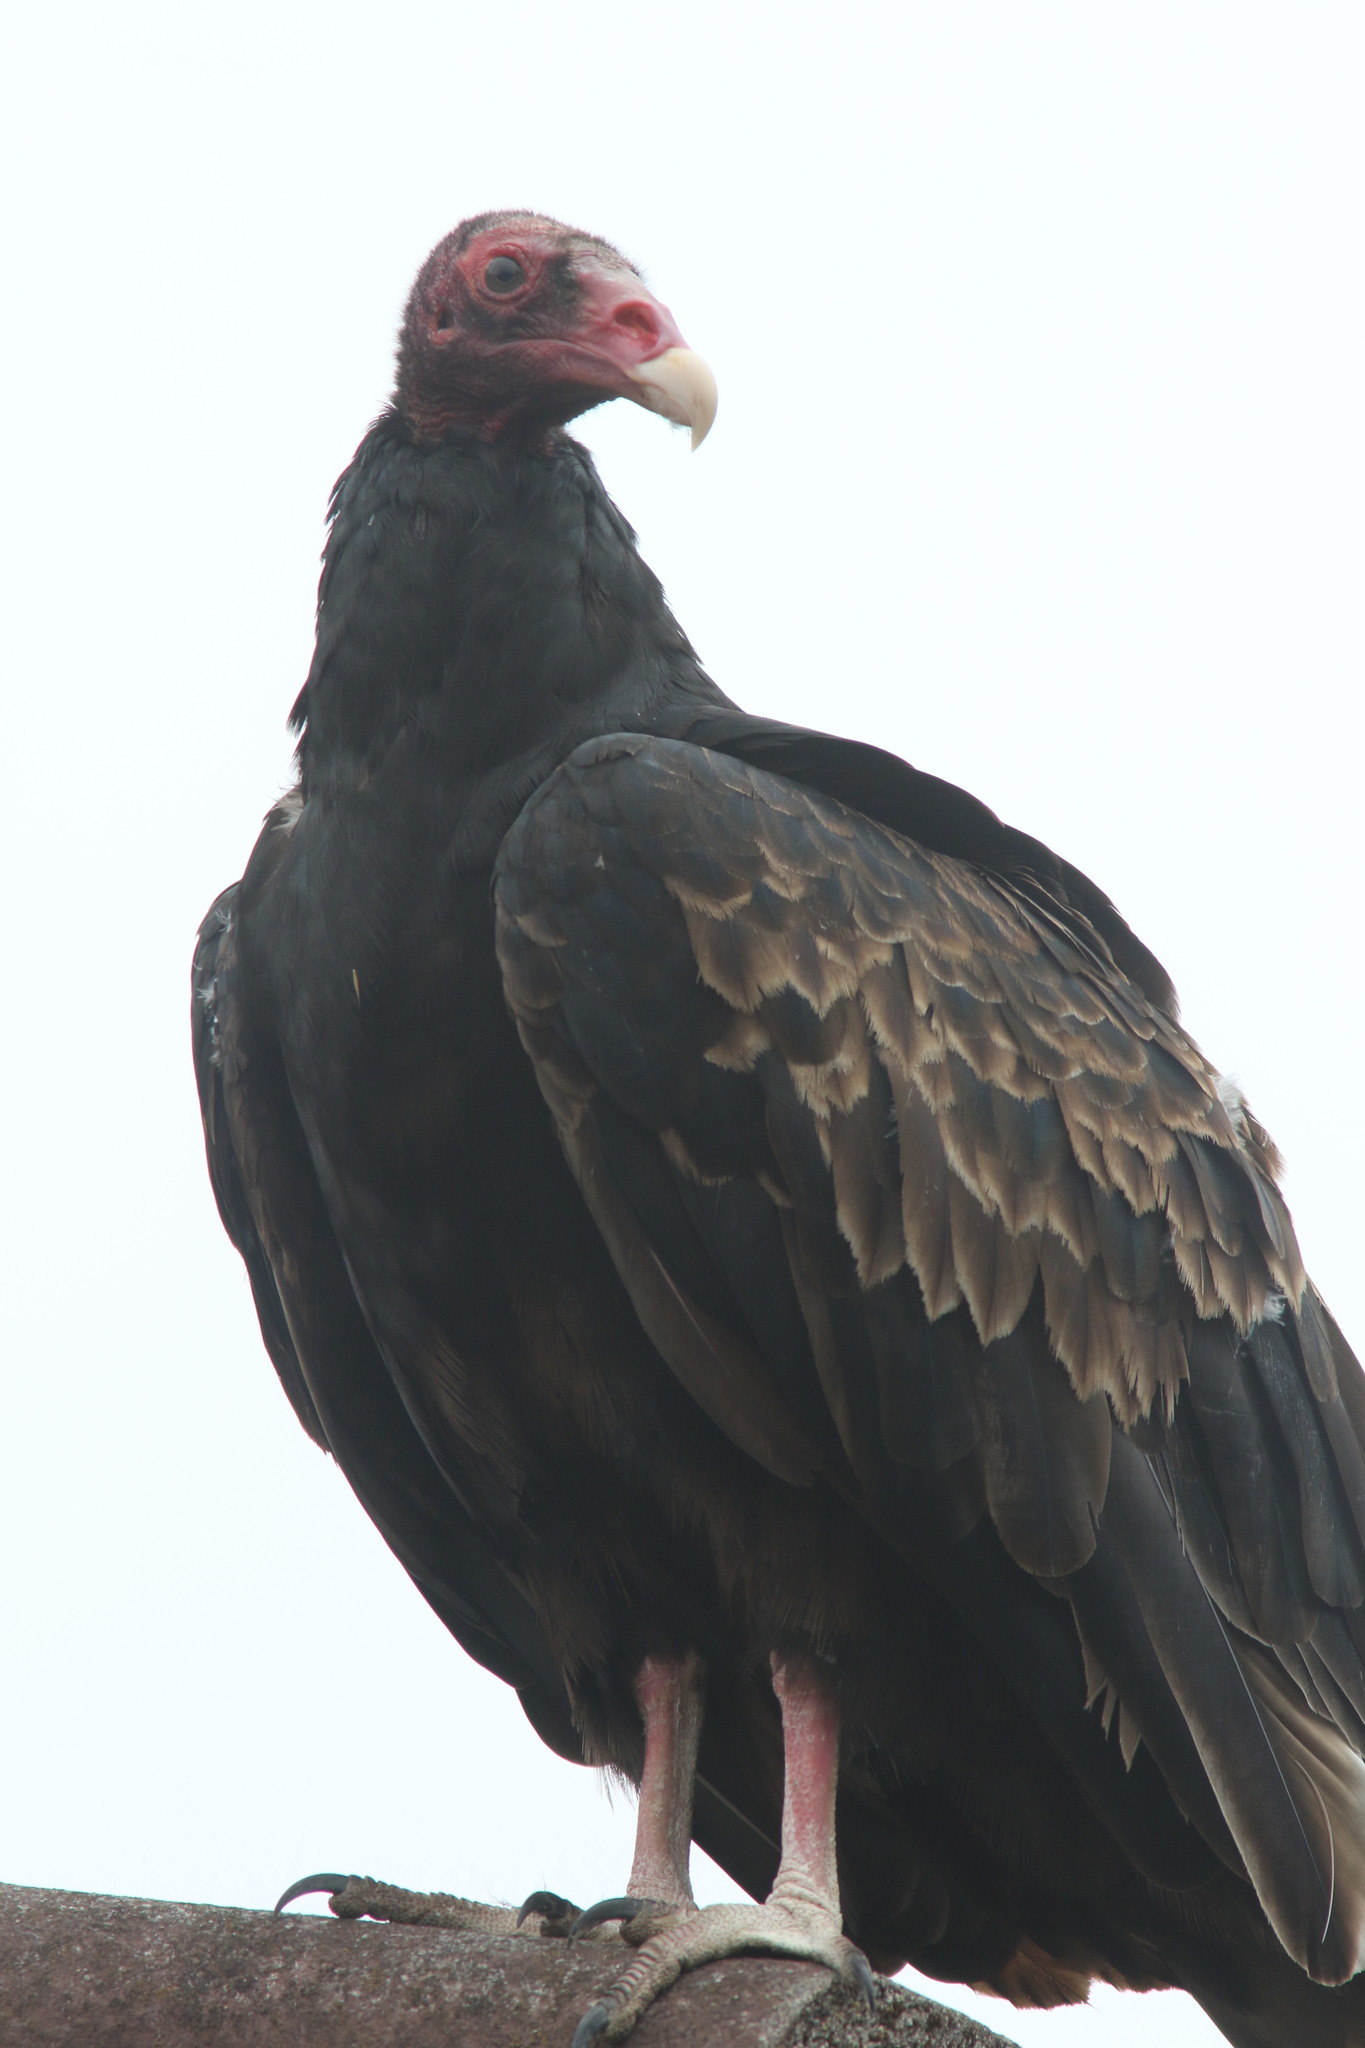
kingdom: Animalia
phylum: Chordata
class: Aves
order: Accipitriformes
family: Cathartidae
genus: Cathartes
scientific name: Cathartes aura
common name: Turkey vulture
